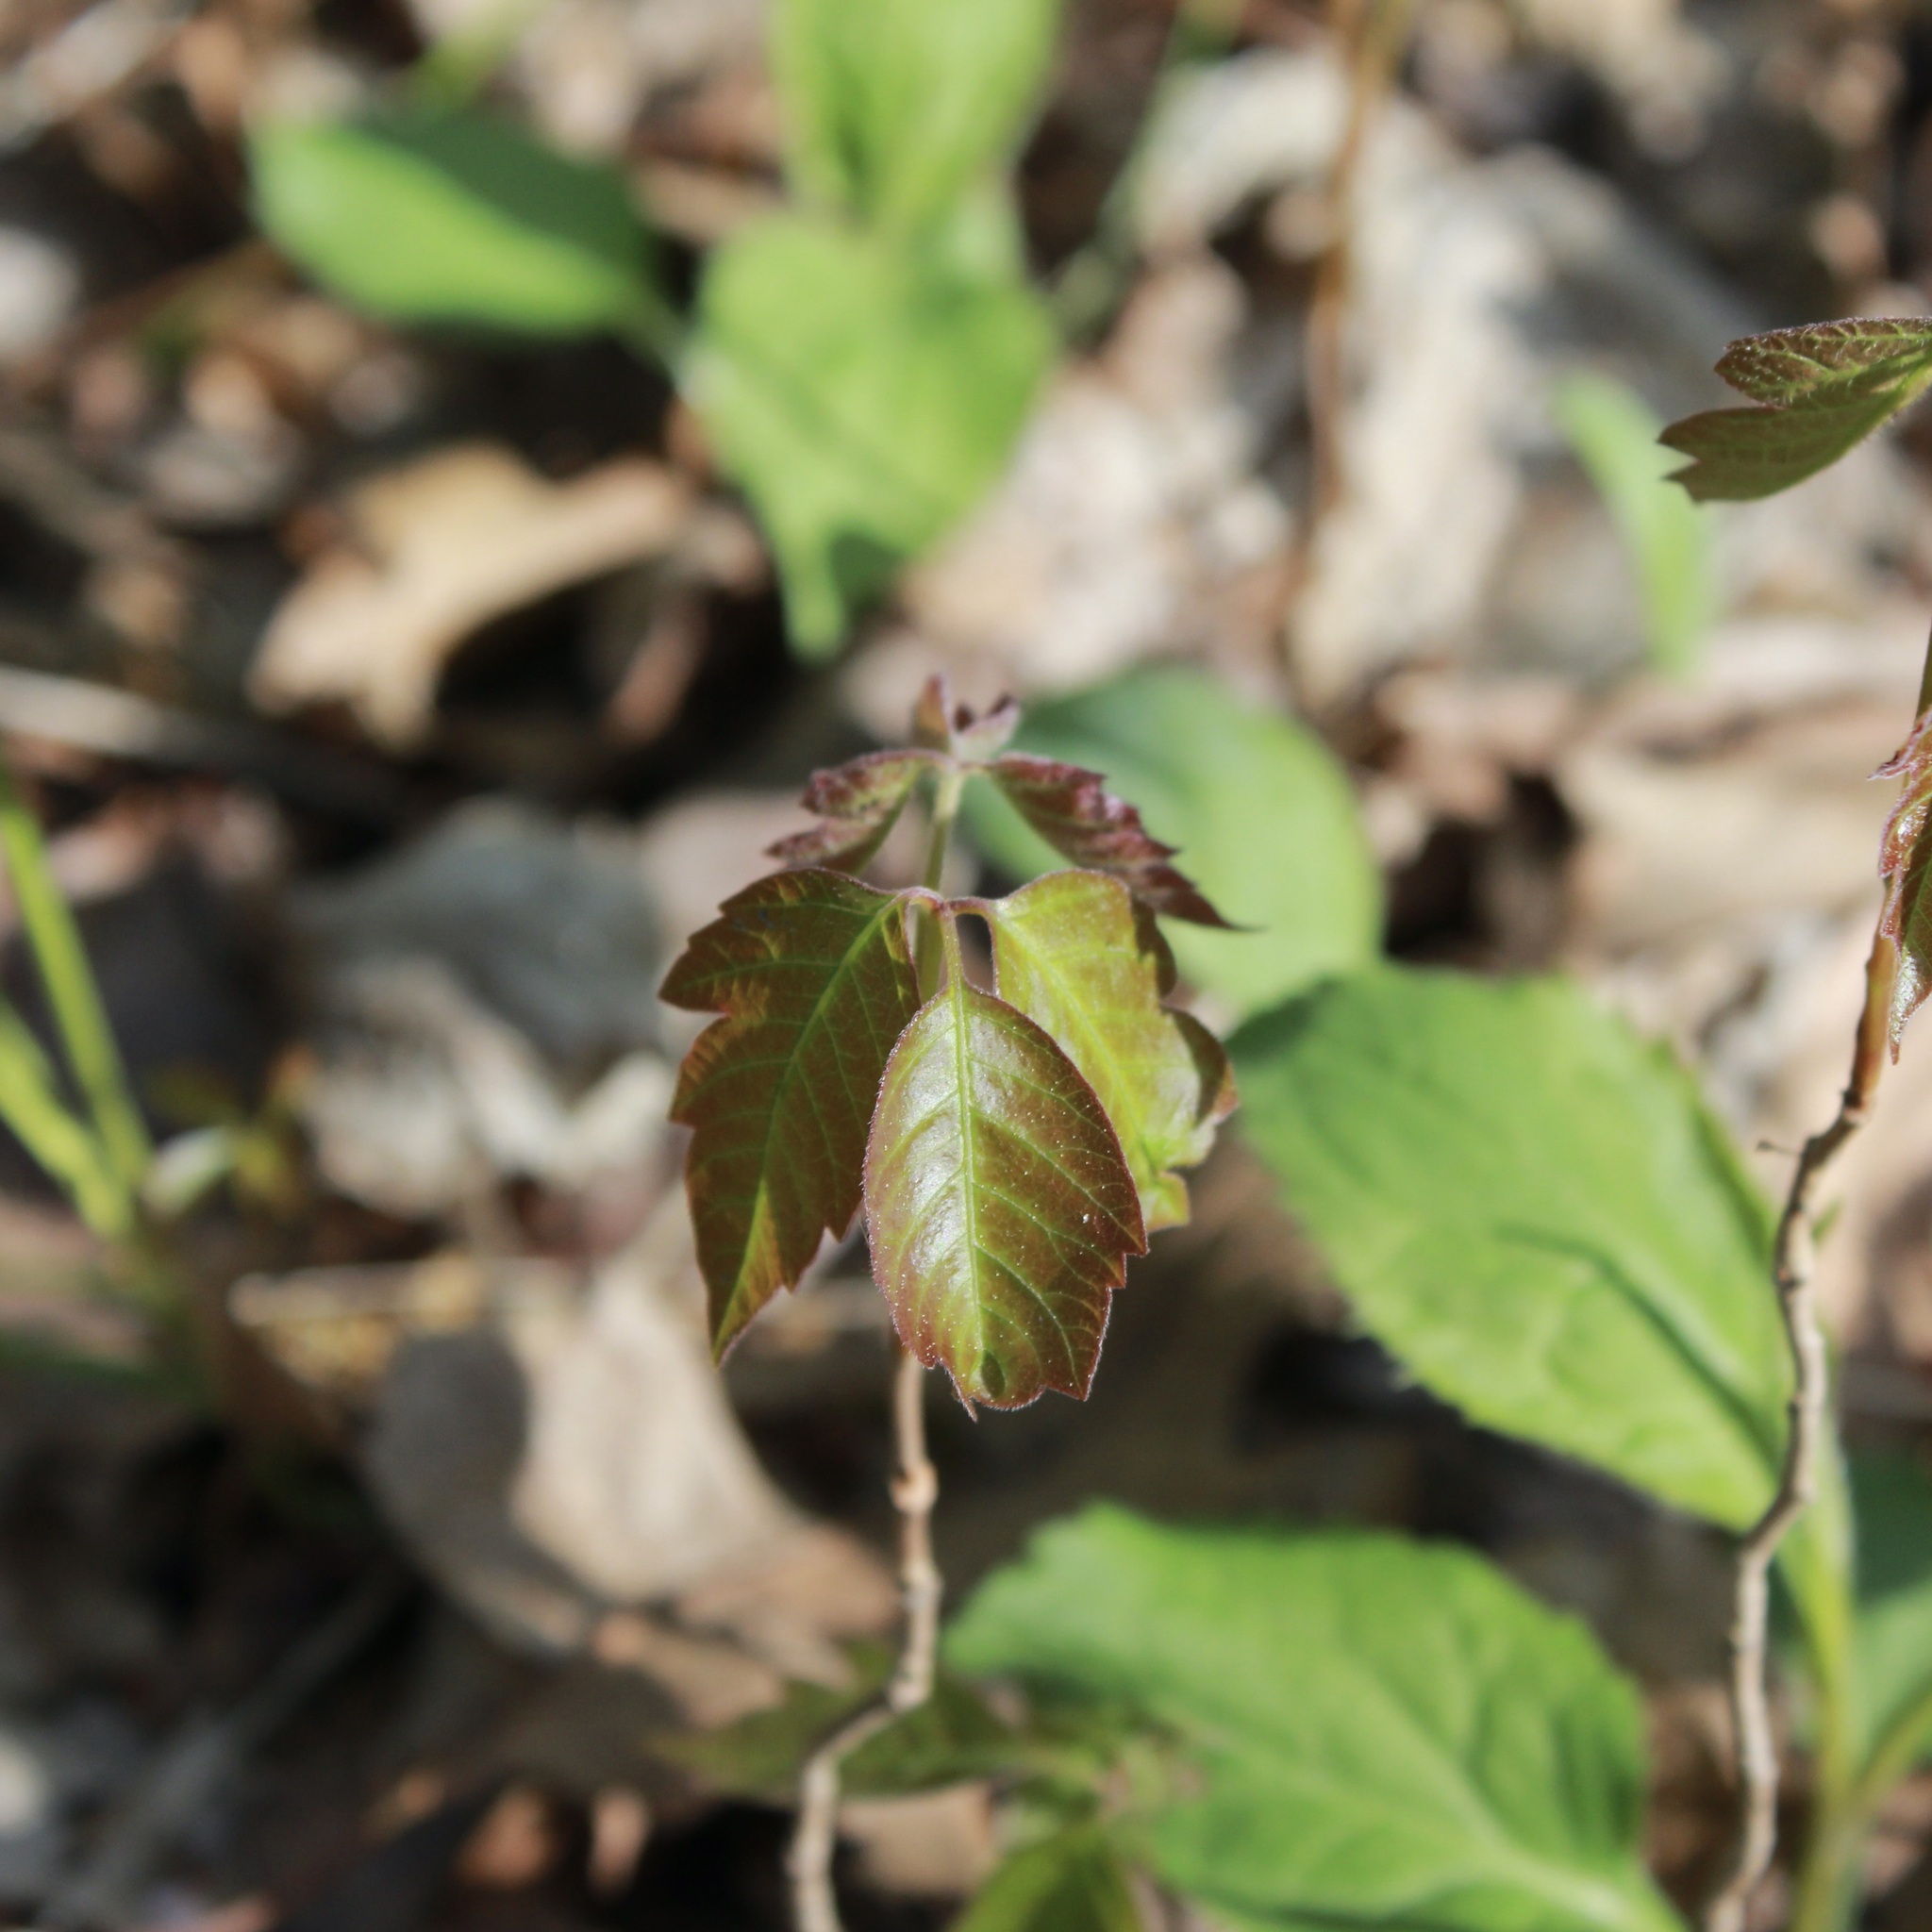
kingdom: Plantae
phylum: Tracheophyta
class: Magnoliopsida
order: Sapindales
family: Anacardiaceae
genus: Toxicodendron
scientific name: Toxicodendron radicans
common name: Poison ivy
